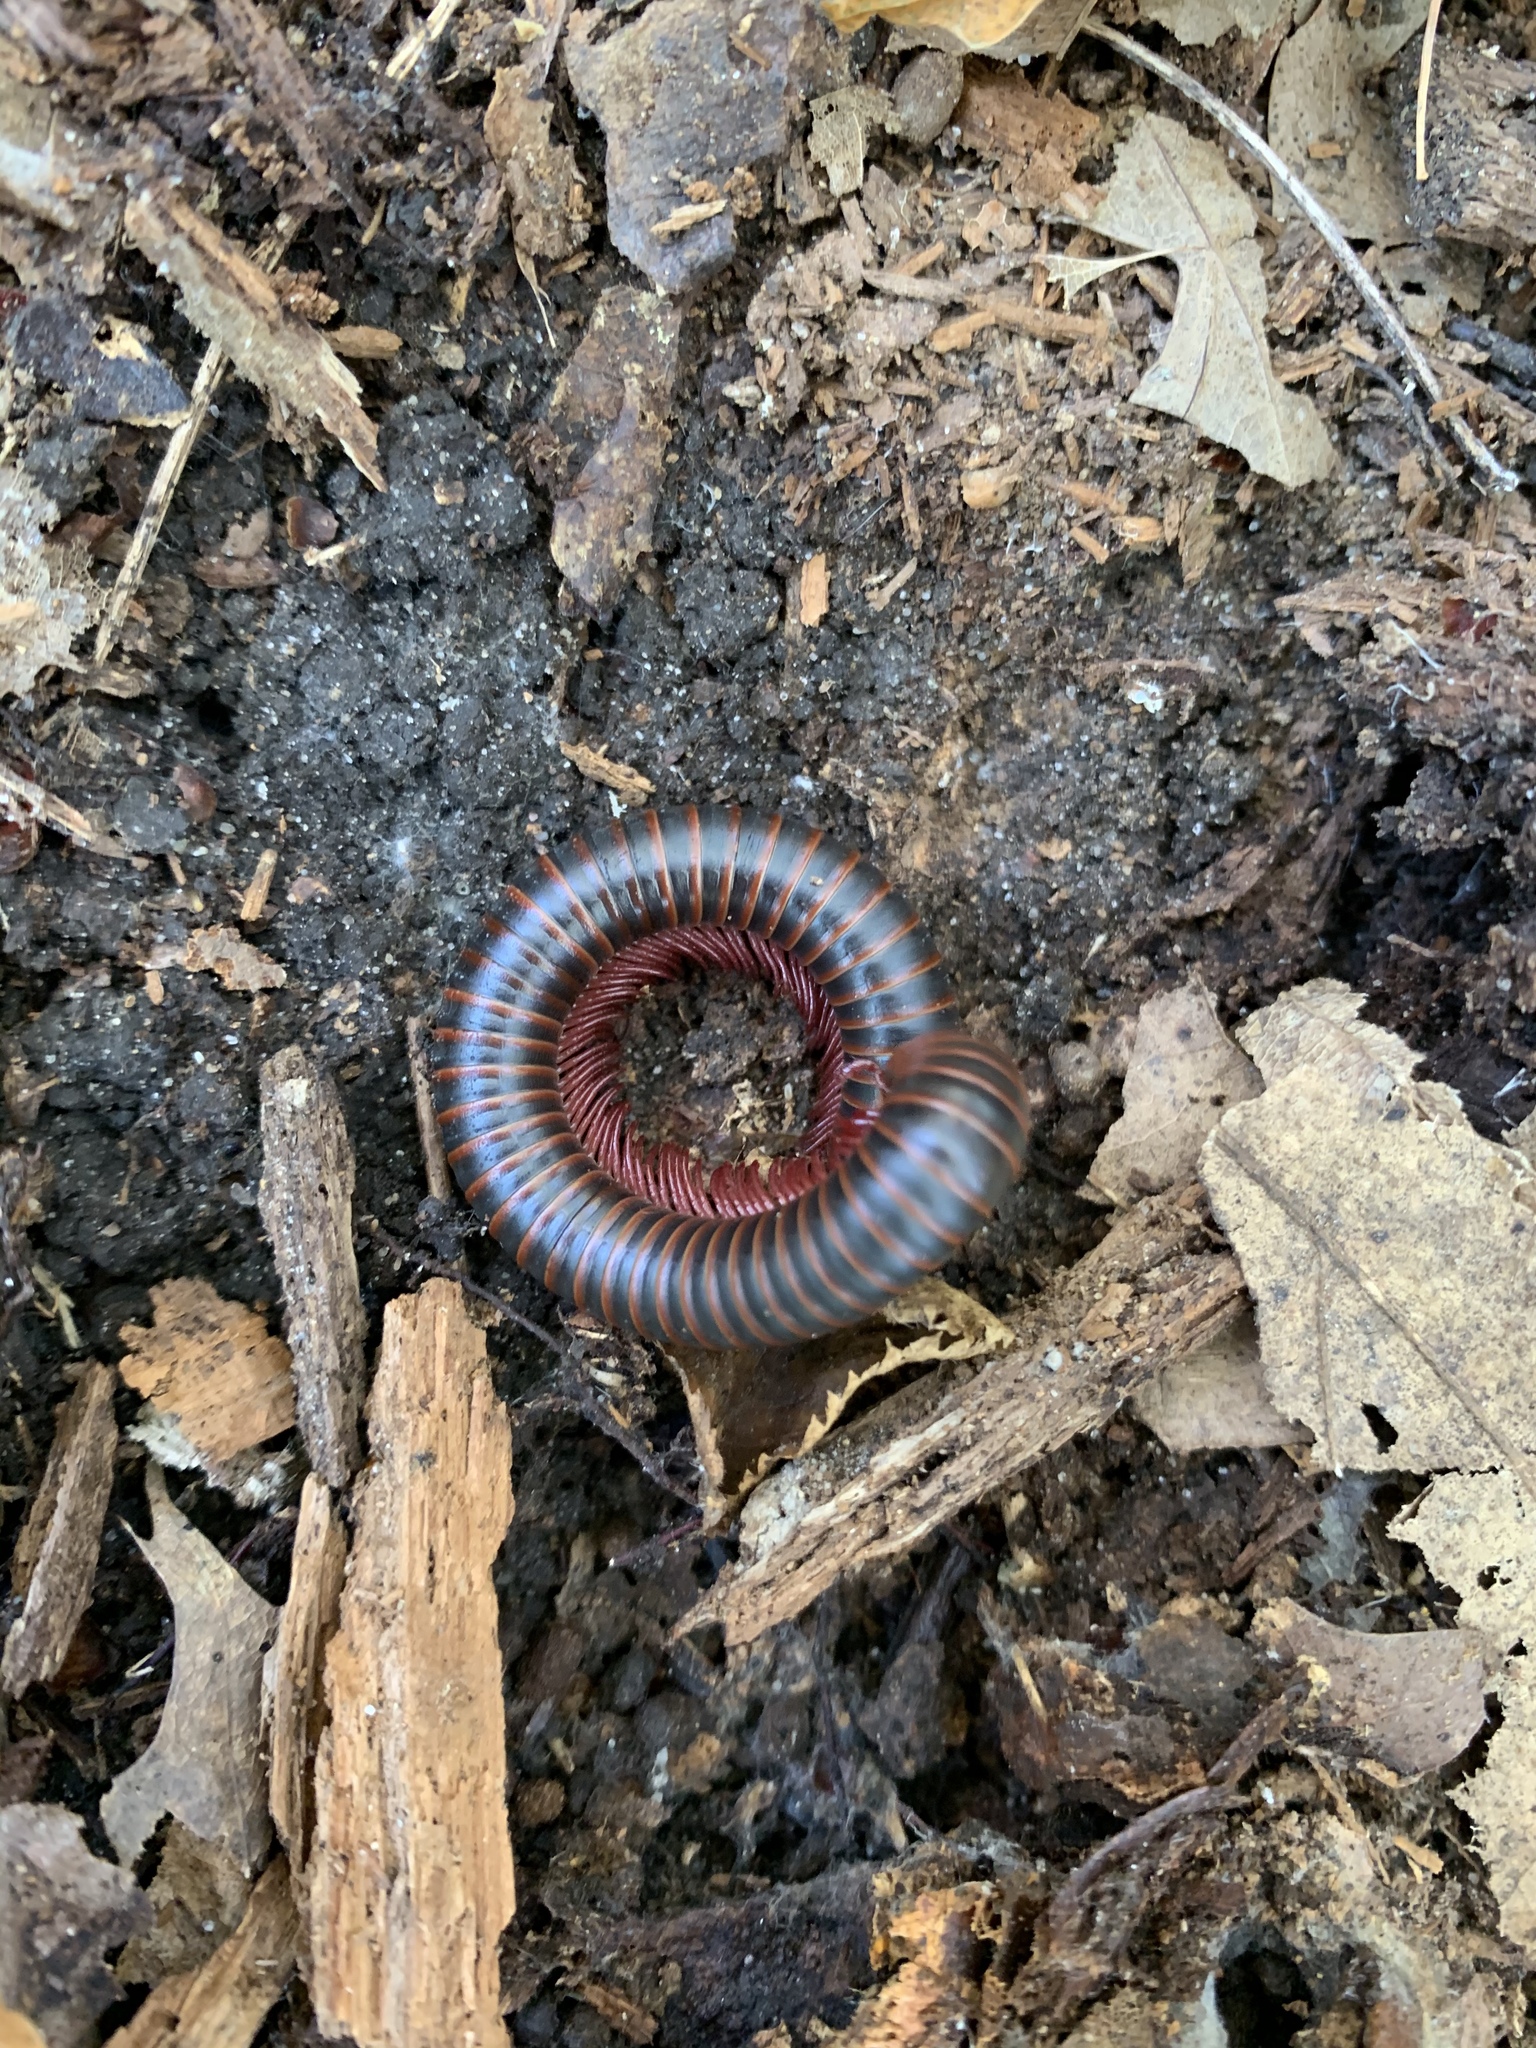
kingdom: Animalia
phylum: Arthropoda
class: Diplopoda
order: Spirobolida
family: Spirobolidae
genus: Narceus
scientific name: Narceus
